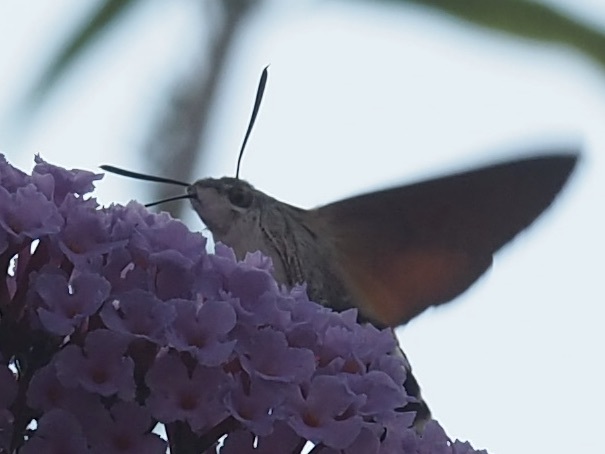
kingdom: Animalia
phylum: Arthropoda
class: Insecta
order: Lepidoptera
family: Sphingidae
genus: Macroglossum
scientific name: Macroglossum stellatarum
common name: Humming-bird hawk-moth
